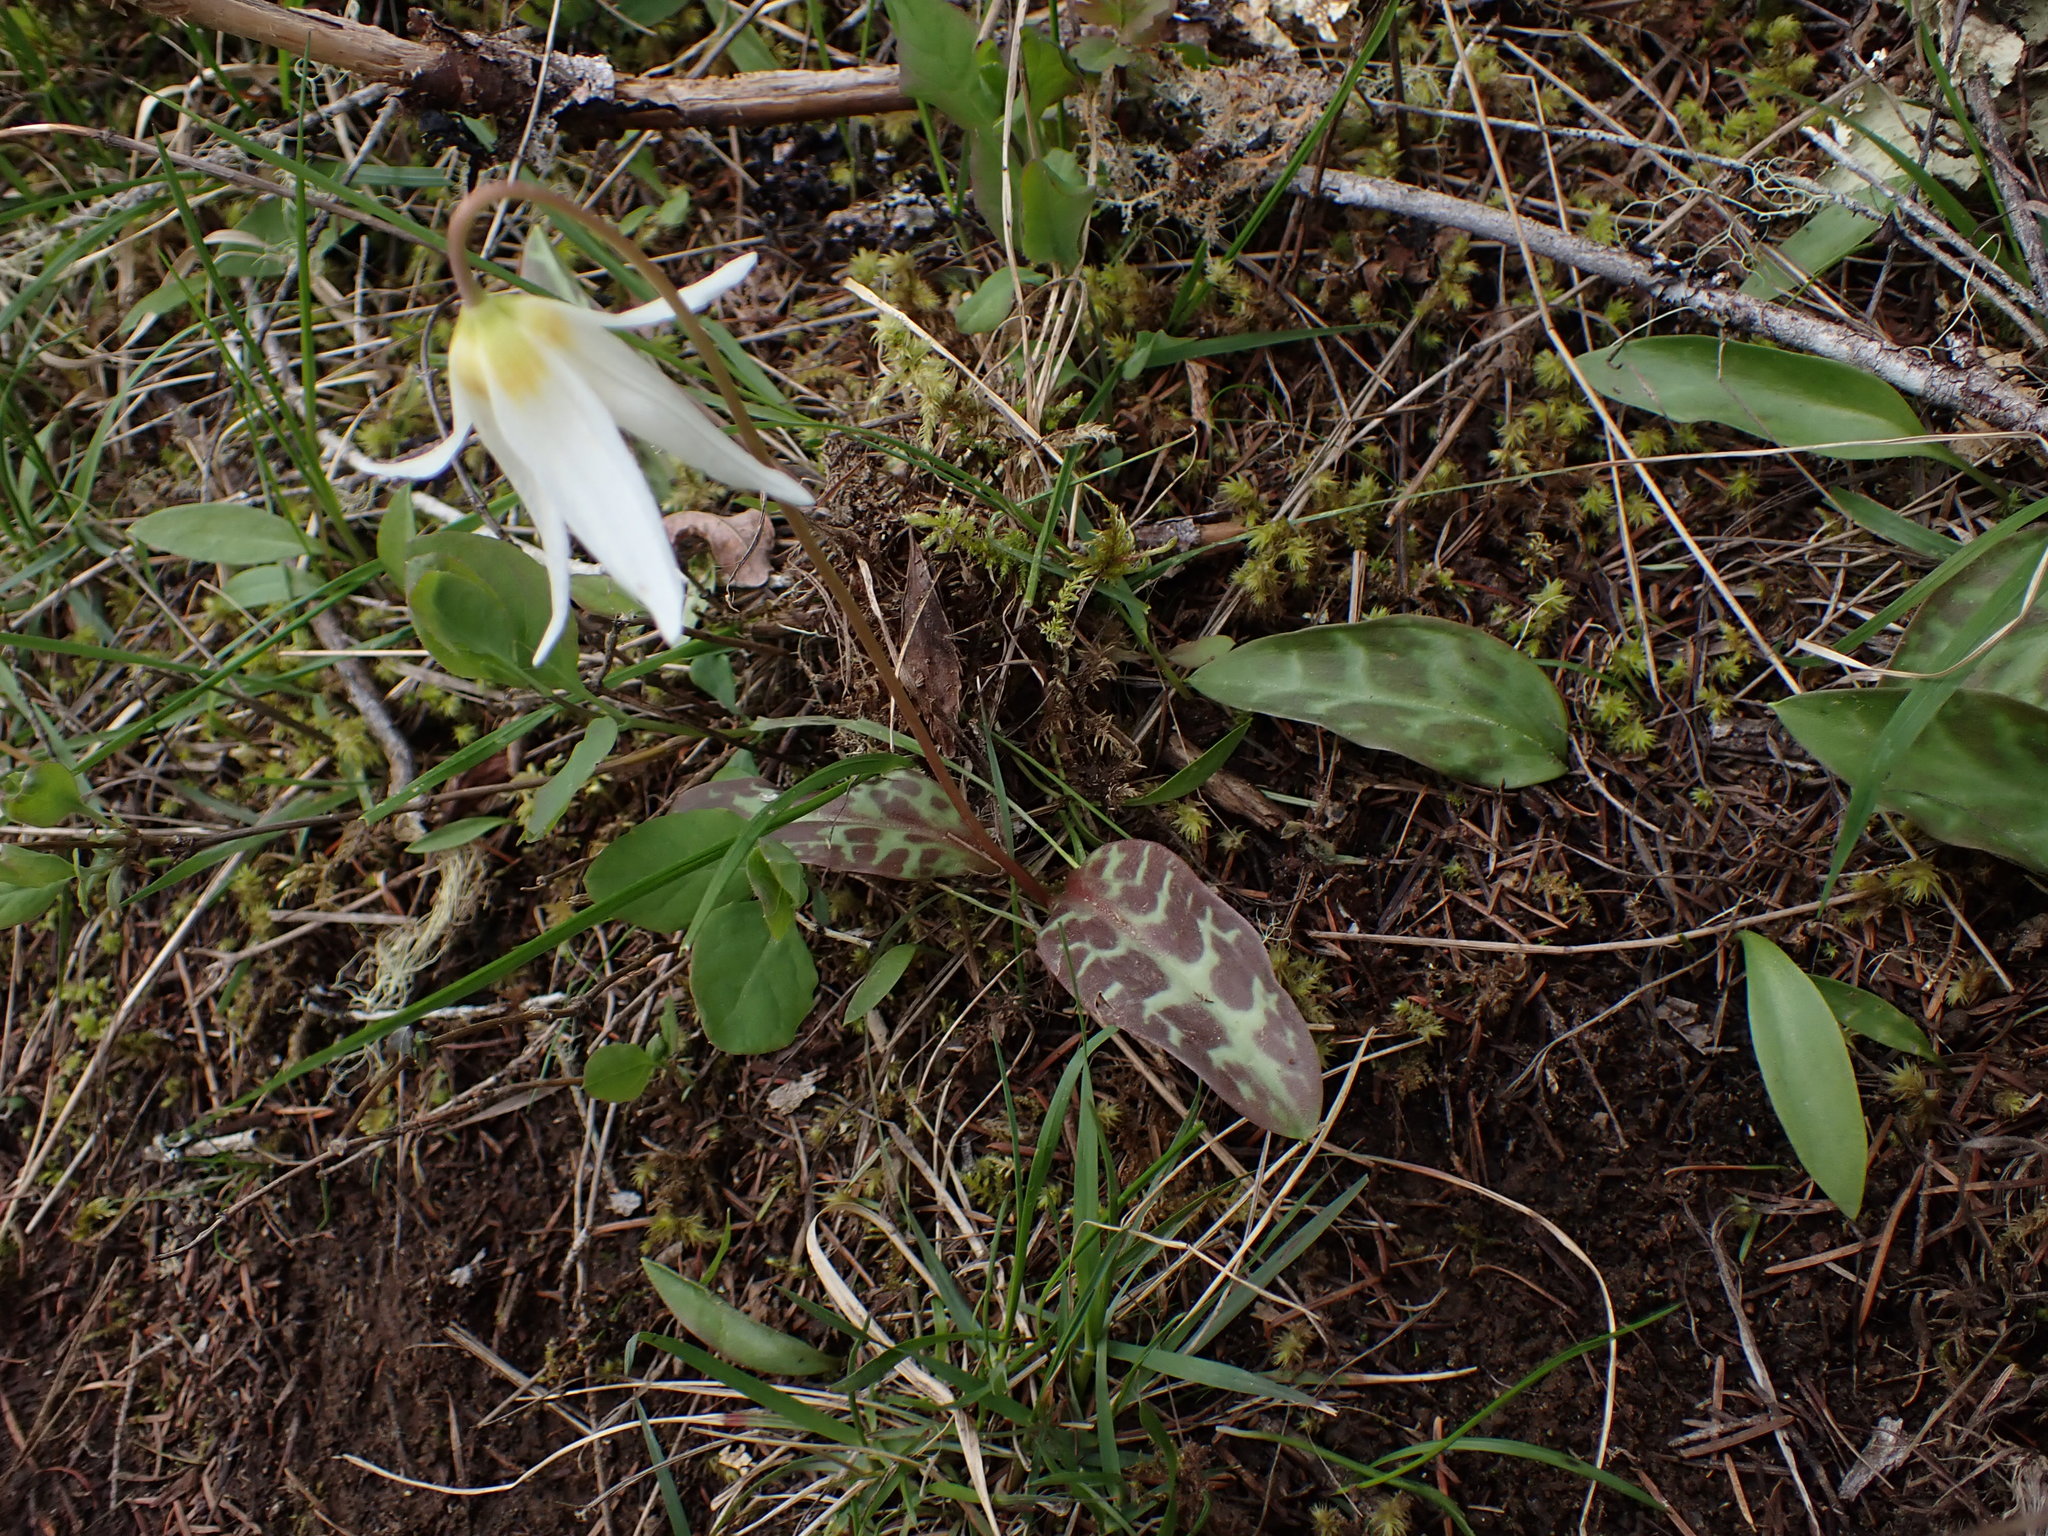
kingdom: Plantae
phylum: Tracheophyta
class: Liliopsida
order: Liliales
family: Liliaceae
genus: Erythronium
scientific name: Erythronium oregonum
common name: Giant adder's-tongue
